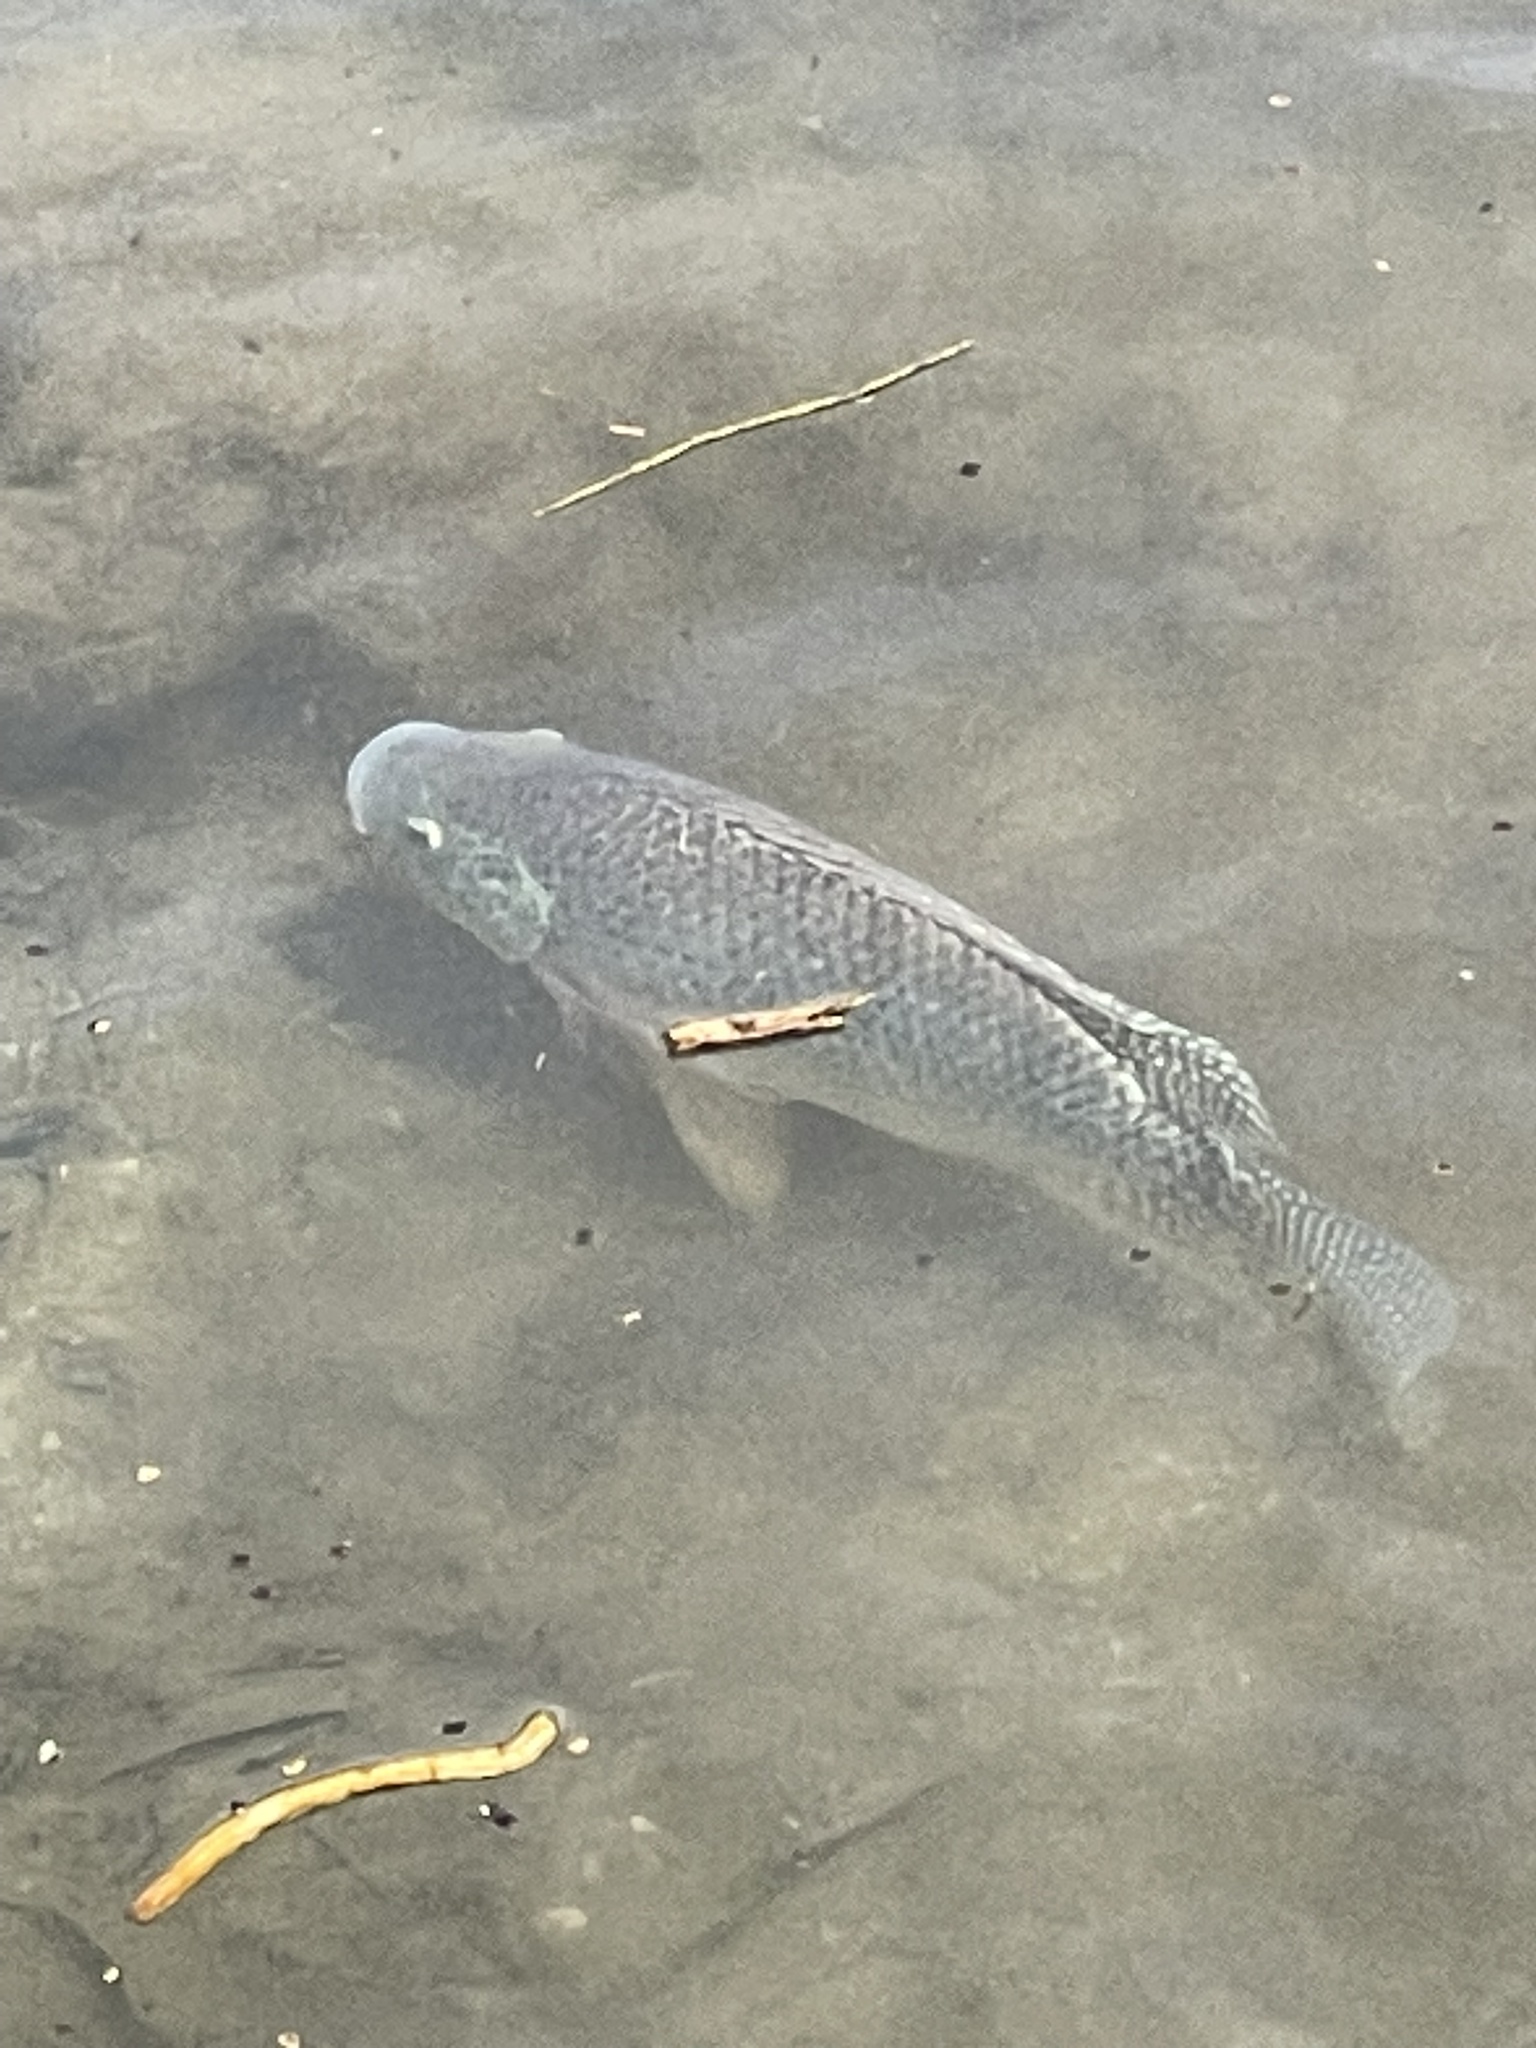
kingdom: Animalia
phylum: Chordata
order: Perciformes
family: Cichlidae
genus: Oreochromis
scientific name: Oreochromis niloticus
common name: Nile tilapia
